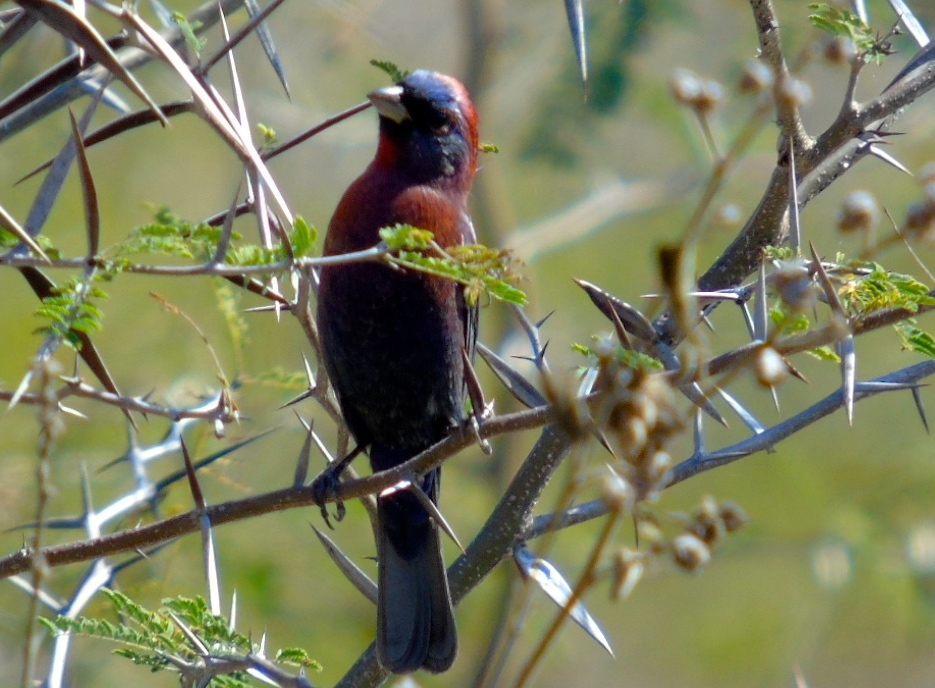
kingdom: Animalia
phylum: Chordata
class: Aves
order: Passeriformes
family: Cardinalidae
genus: Passerina
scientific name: Passerina versicolor
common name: Varied bunting
